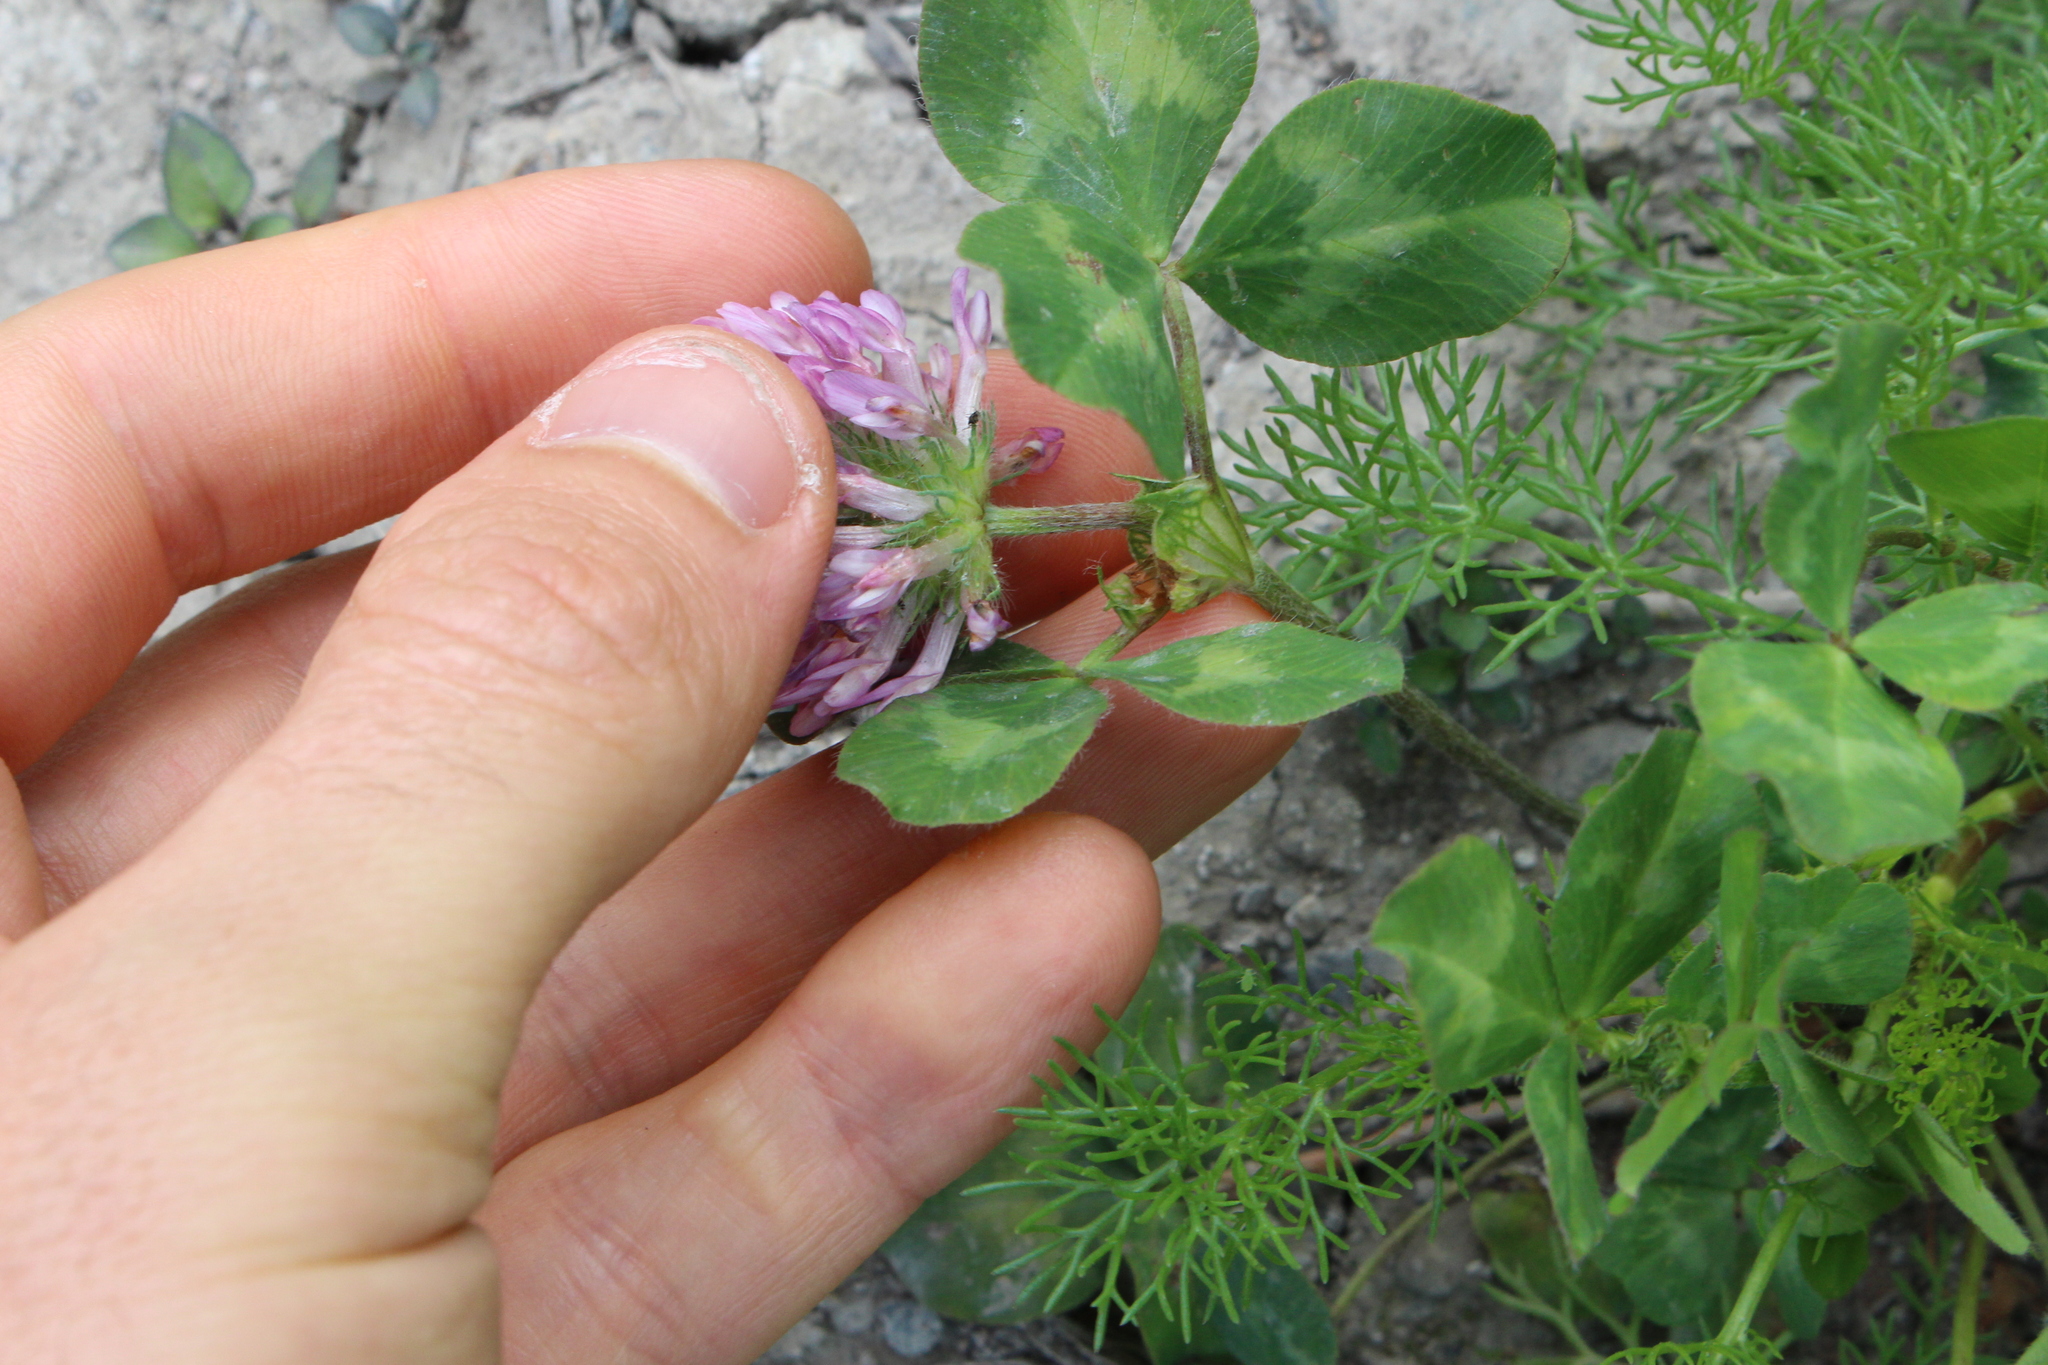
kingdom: Plantae
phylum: Tracheophyta
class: Magnoliopsida
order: Fabales
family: Fabaceae
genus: Trifolium
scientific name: Trifolium pratense
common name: Red clover
